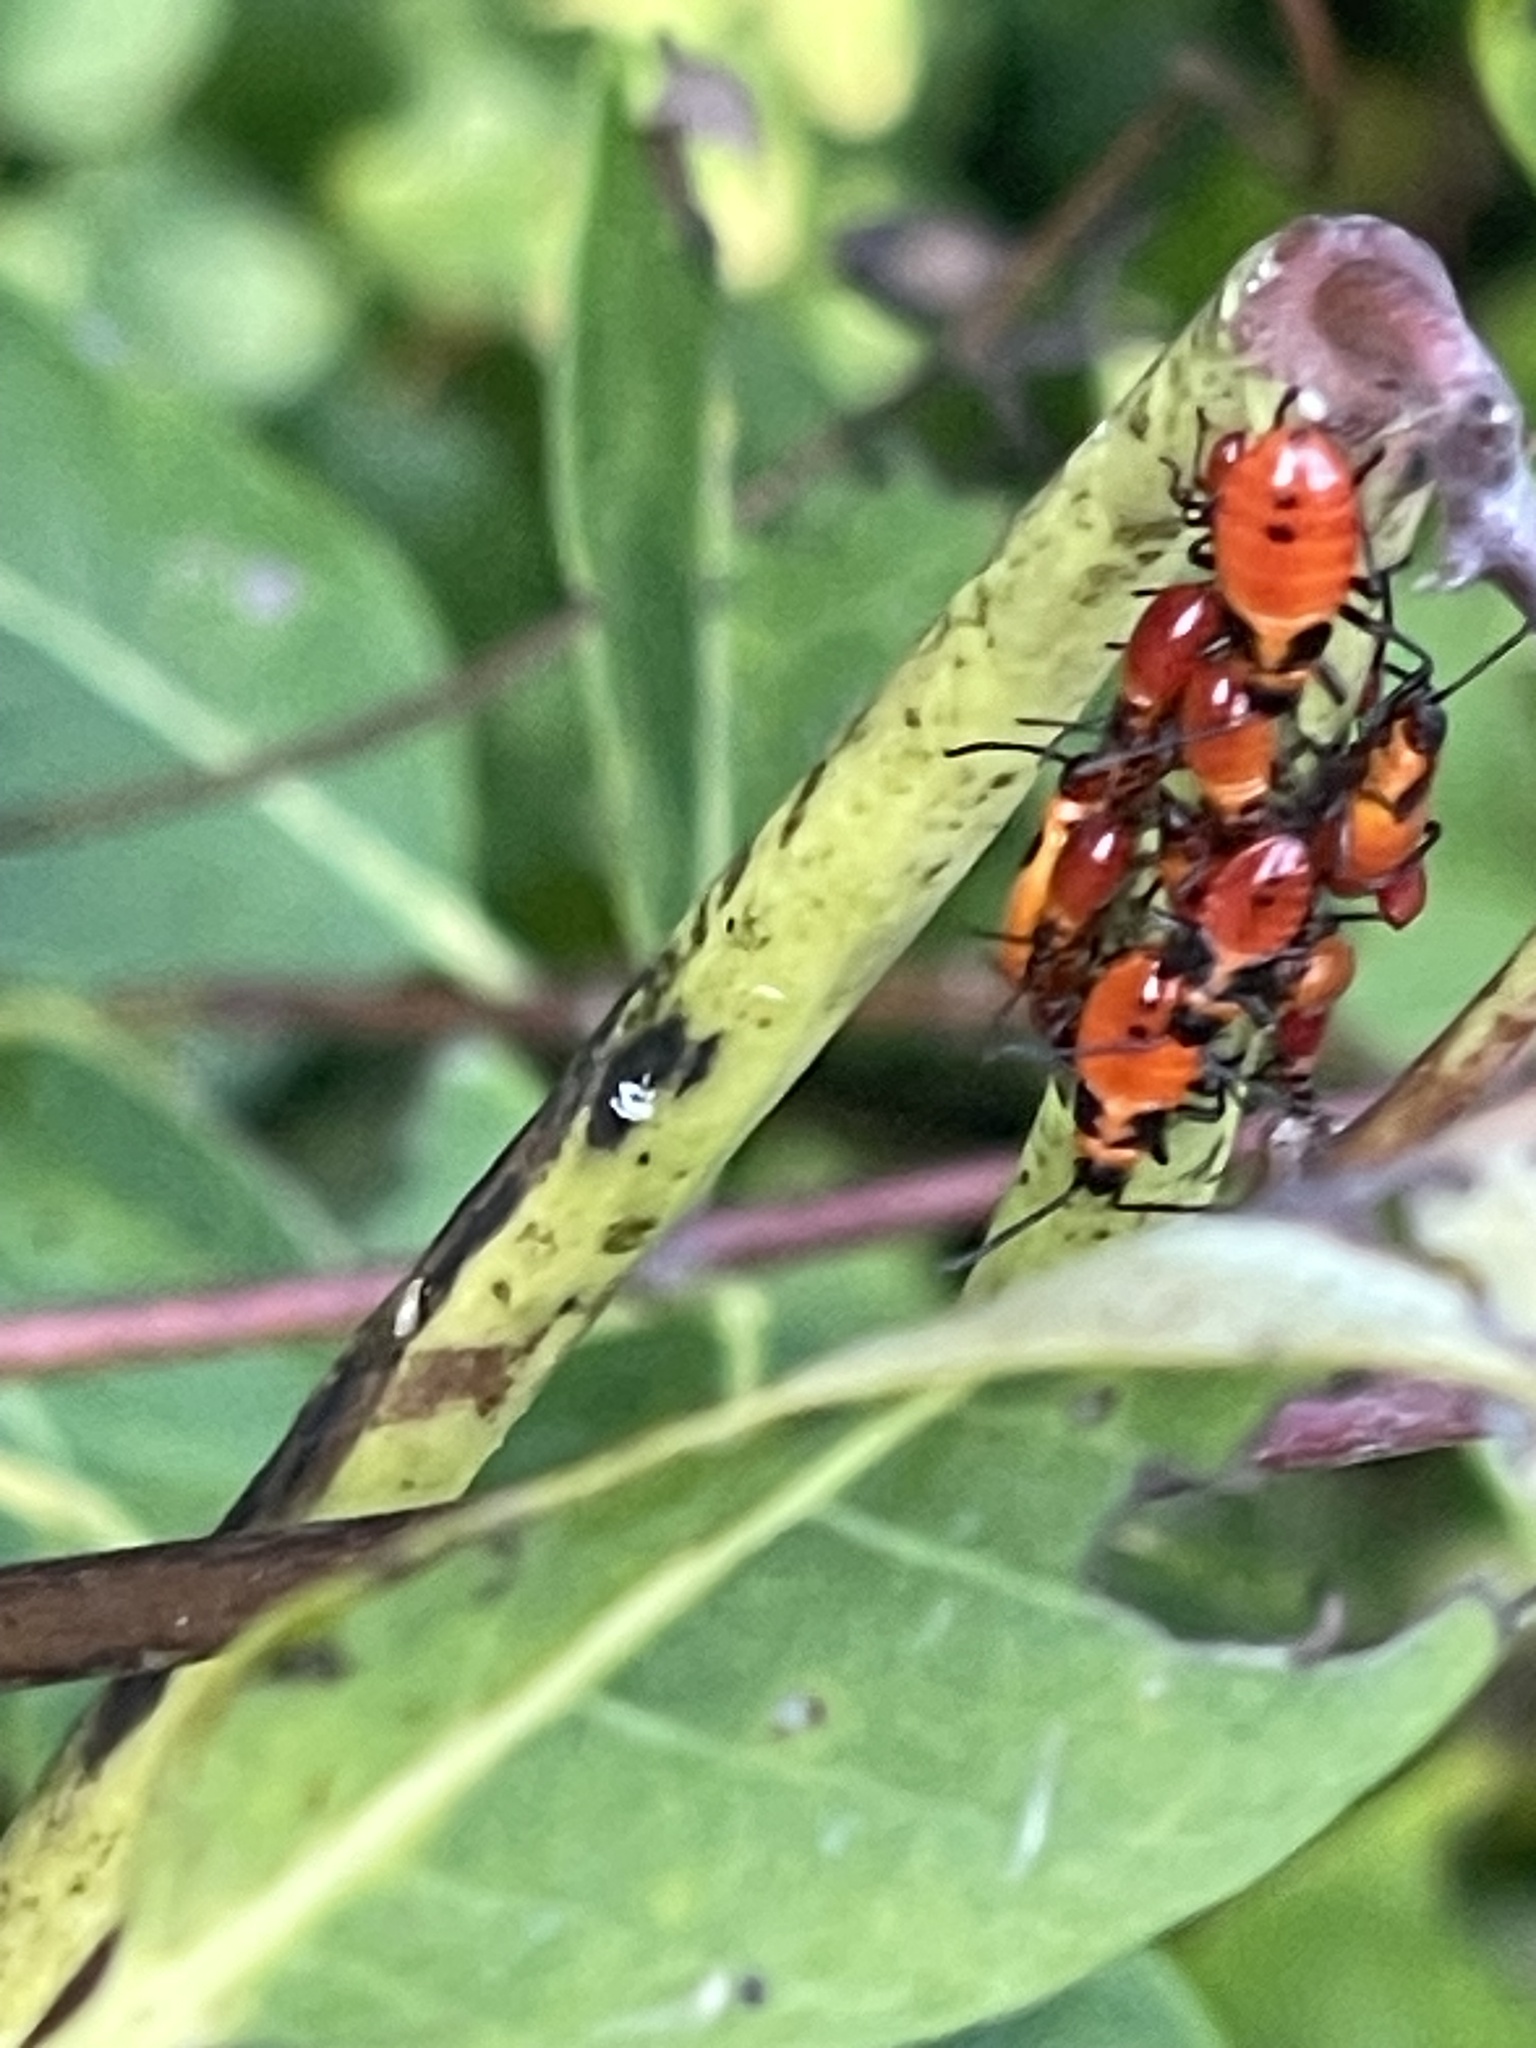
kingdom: Animalia
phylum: Arthropoda
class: Insecta
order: Hemiptera
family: Lygaeidae
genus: Oncopeltus
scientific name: Oncopeltus fasciatus
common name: Large milkweed bug
